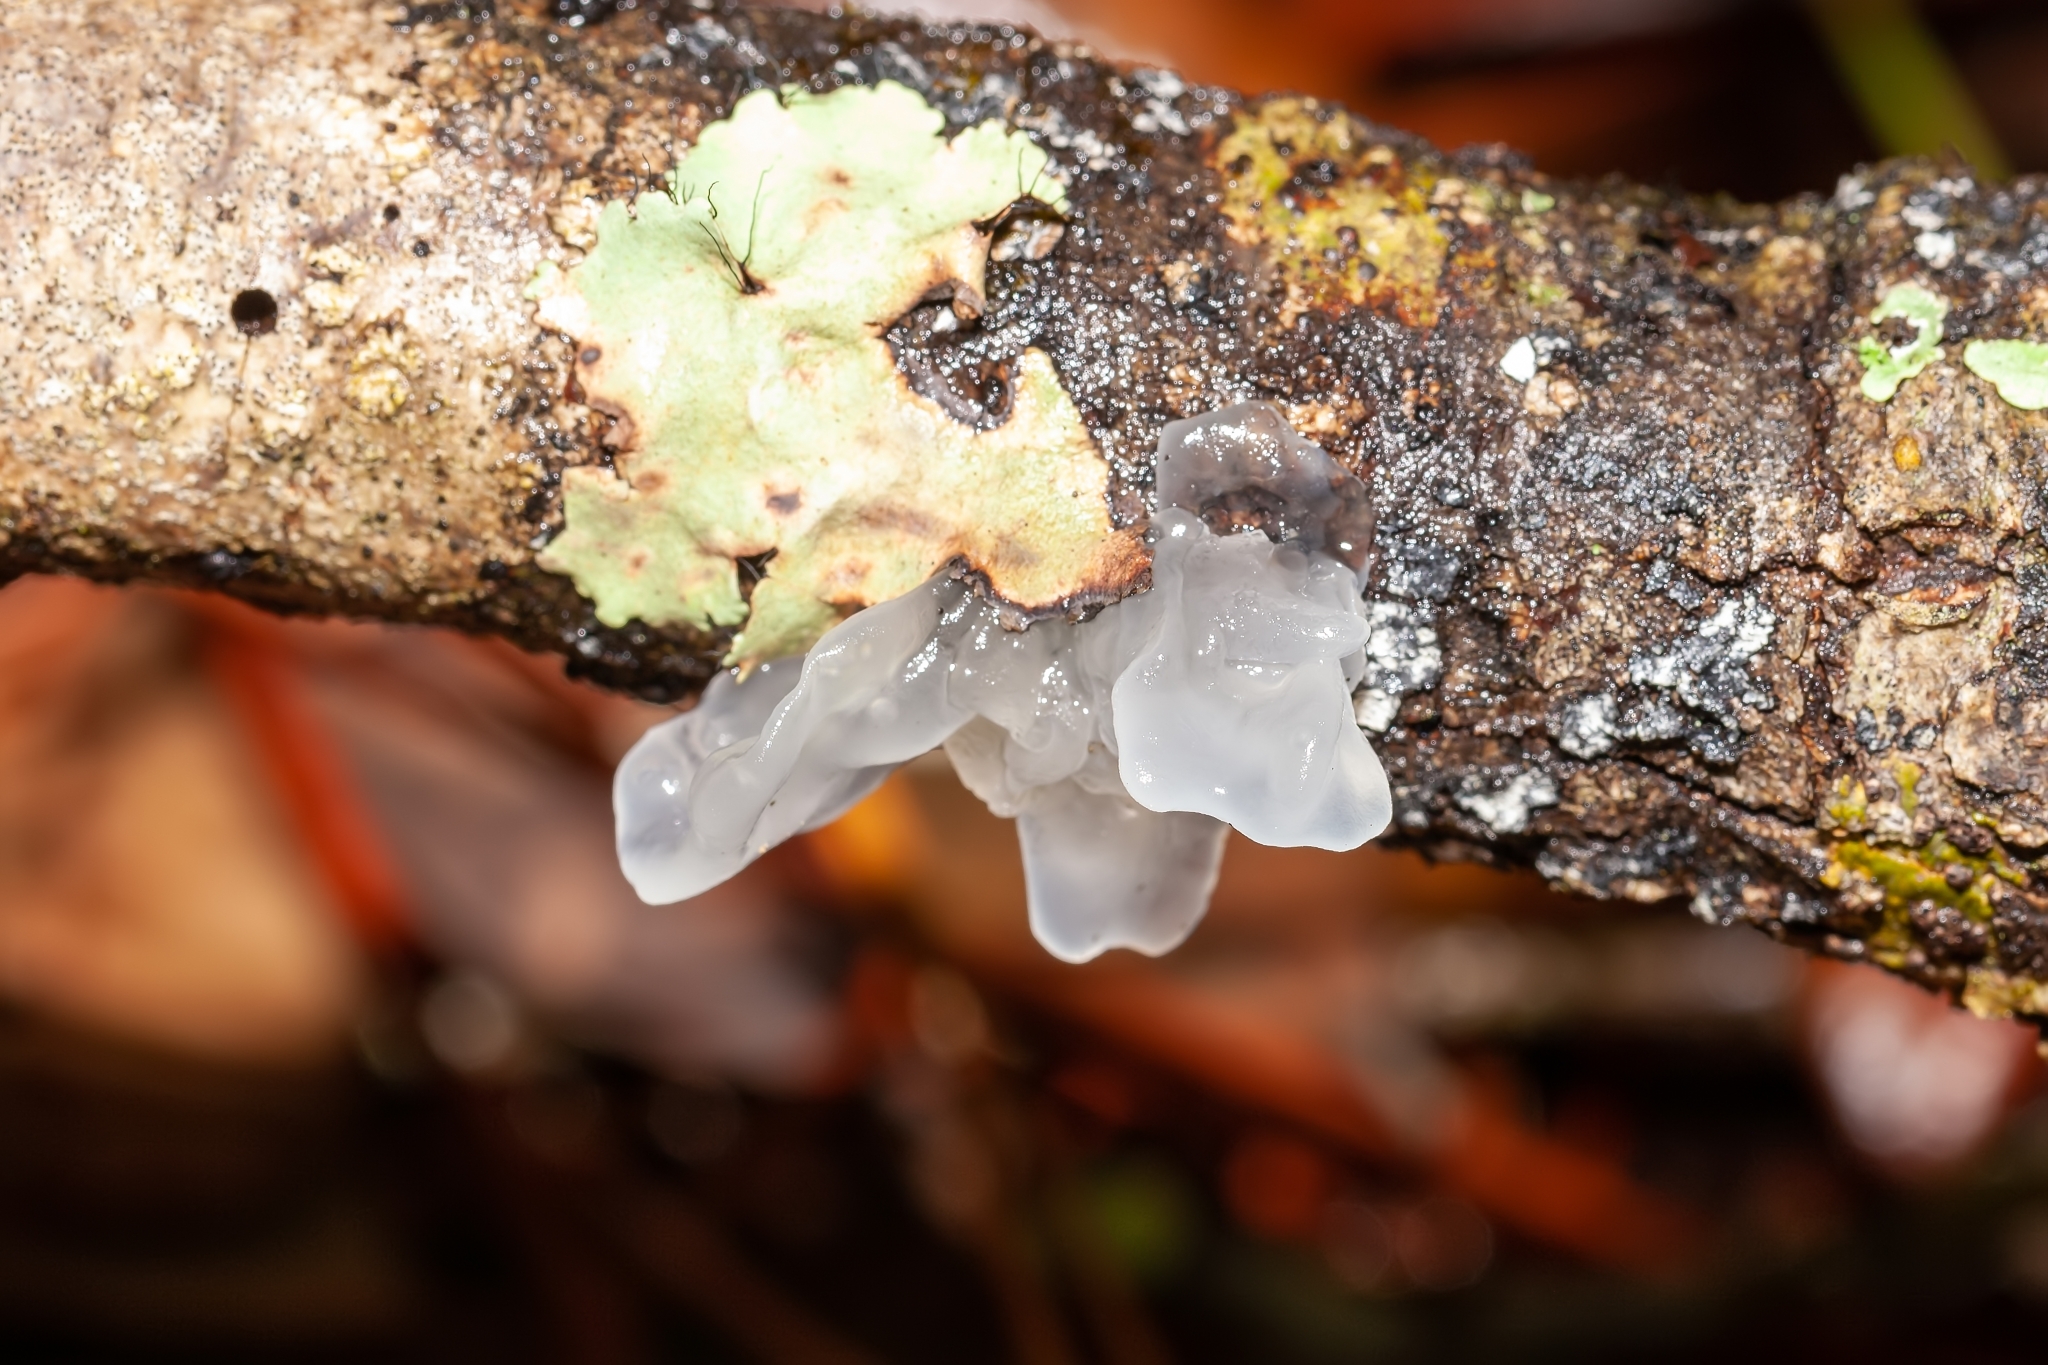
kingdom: Fungi
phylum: Basidiomycota
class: Tremellomycetes
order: Tremellales
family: Tremellaceae
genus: Tremella
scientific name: Tremella fuciformis
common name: Snow fungus
